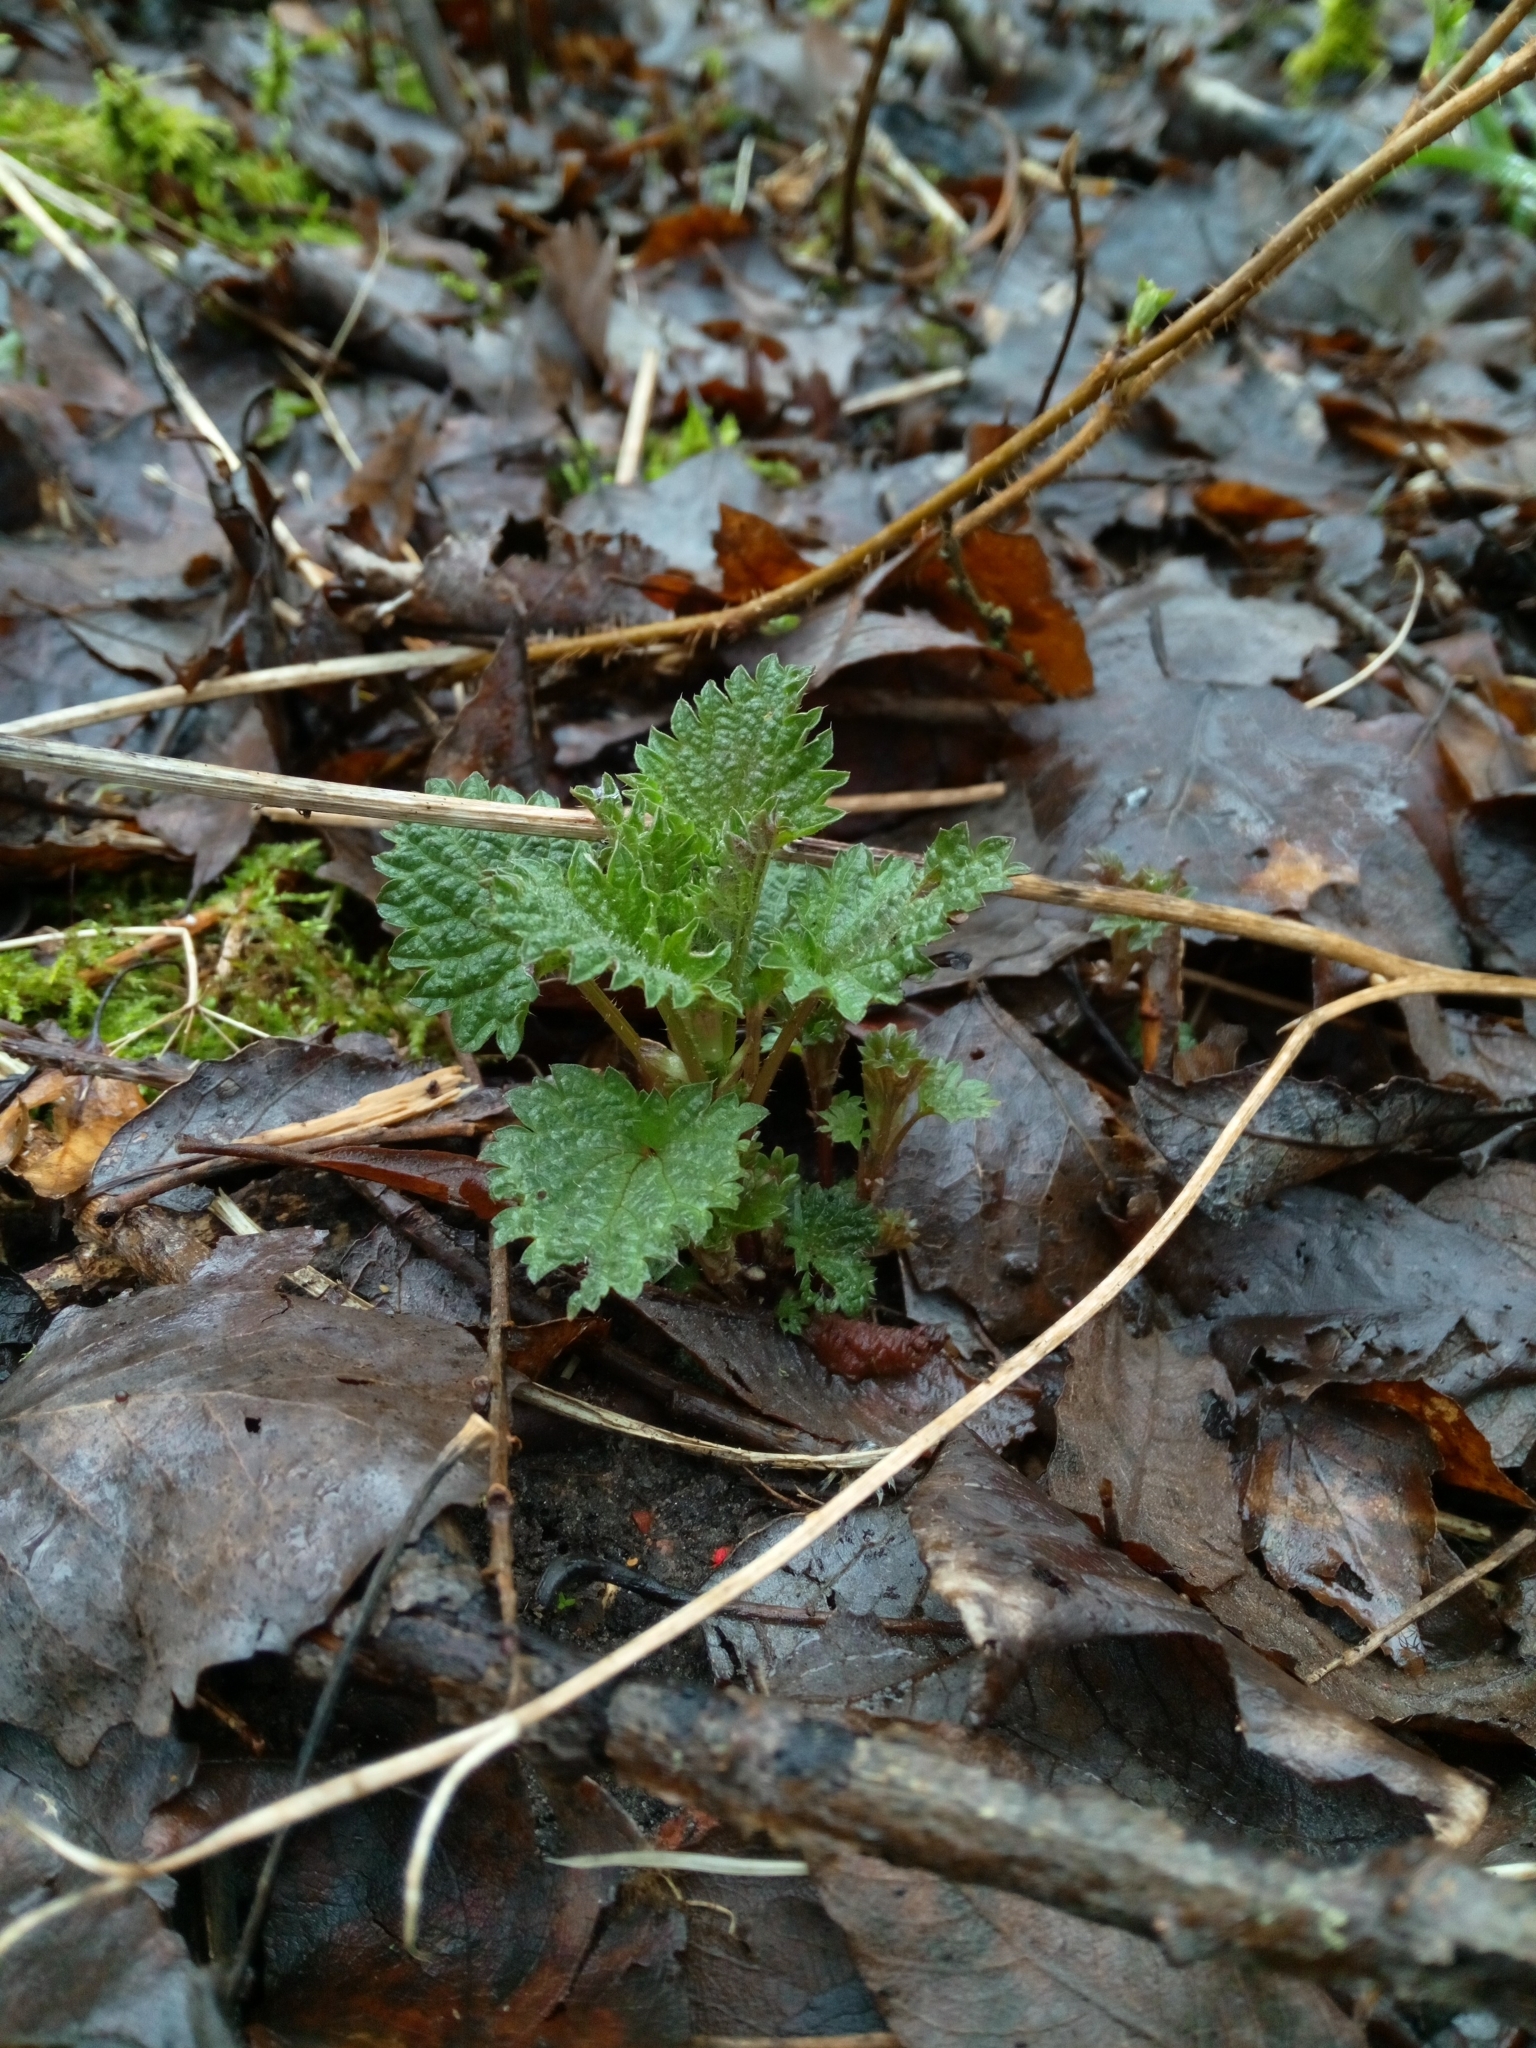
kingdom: Plantae
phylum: Tracheophyta
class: Magnoliopsida
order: Rosales
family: Urticaceae
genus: Urtica
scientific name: Urtica dioica
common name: Common nettle
